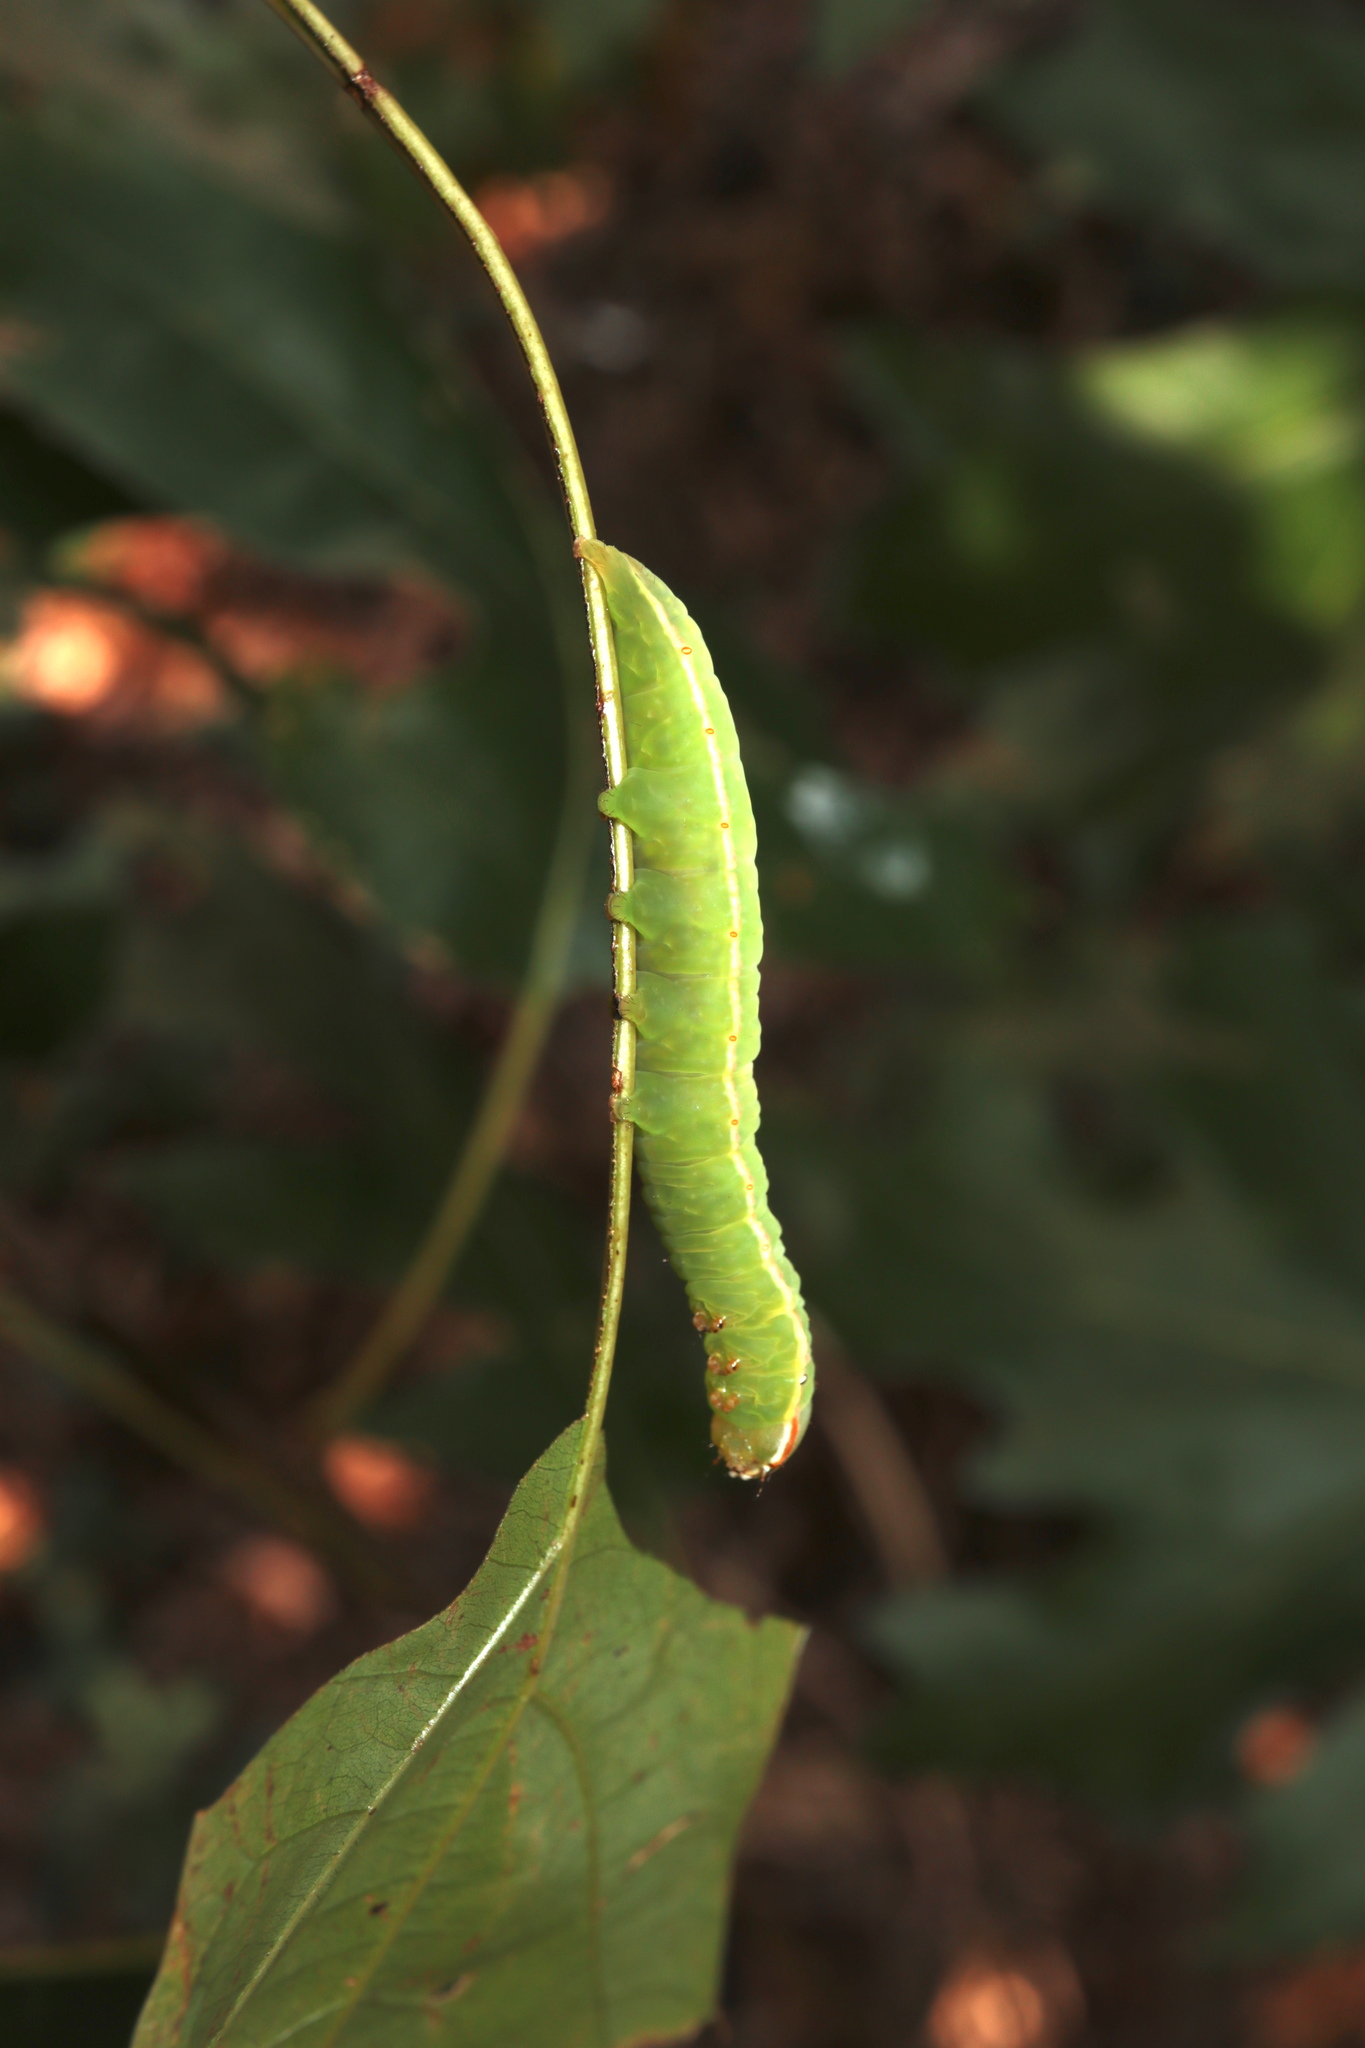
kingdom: Animalia
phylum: Arthropoda
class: Insecta
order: Lepidoptera
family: Notodontidae
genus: Peridea
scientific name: Peridea angulosa
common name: Angulose prominent
